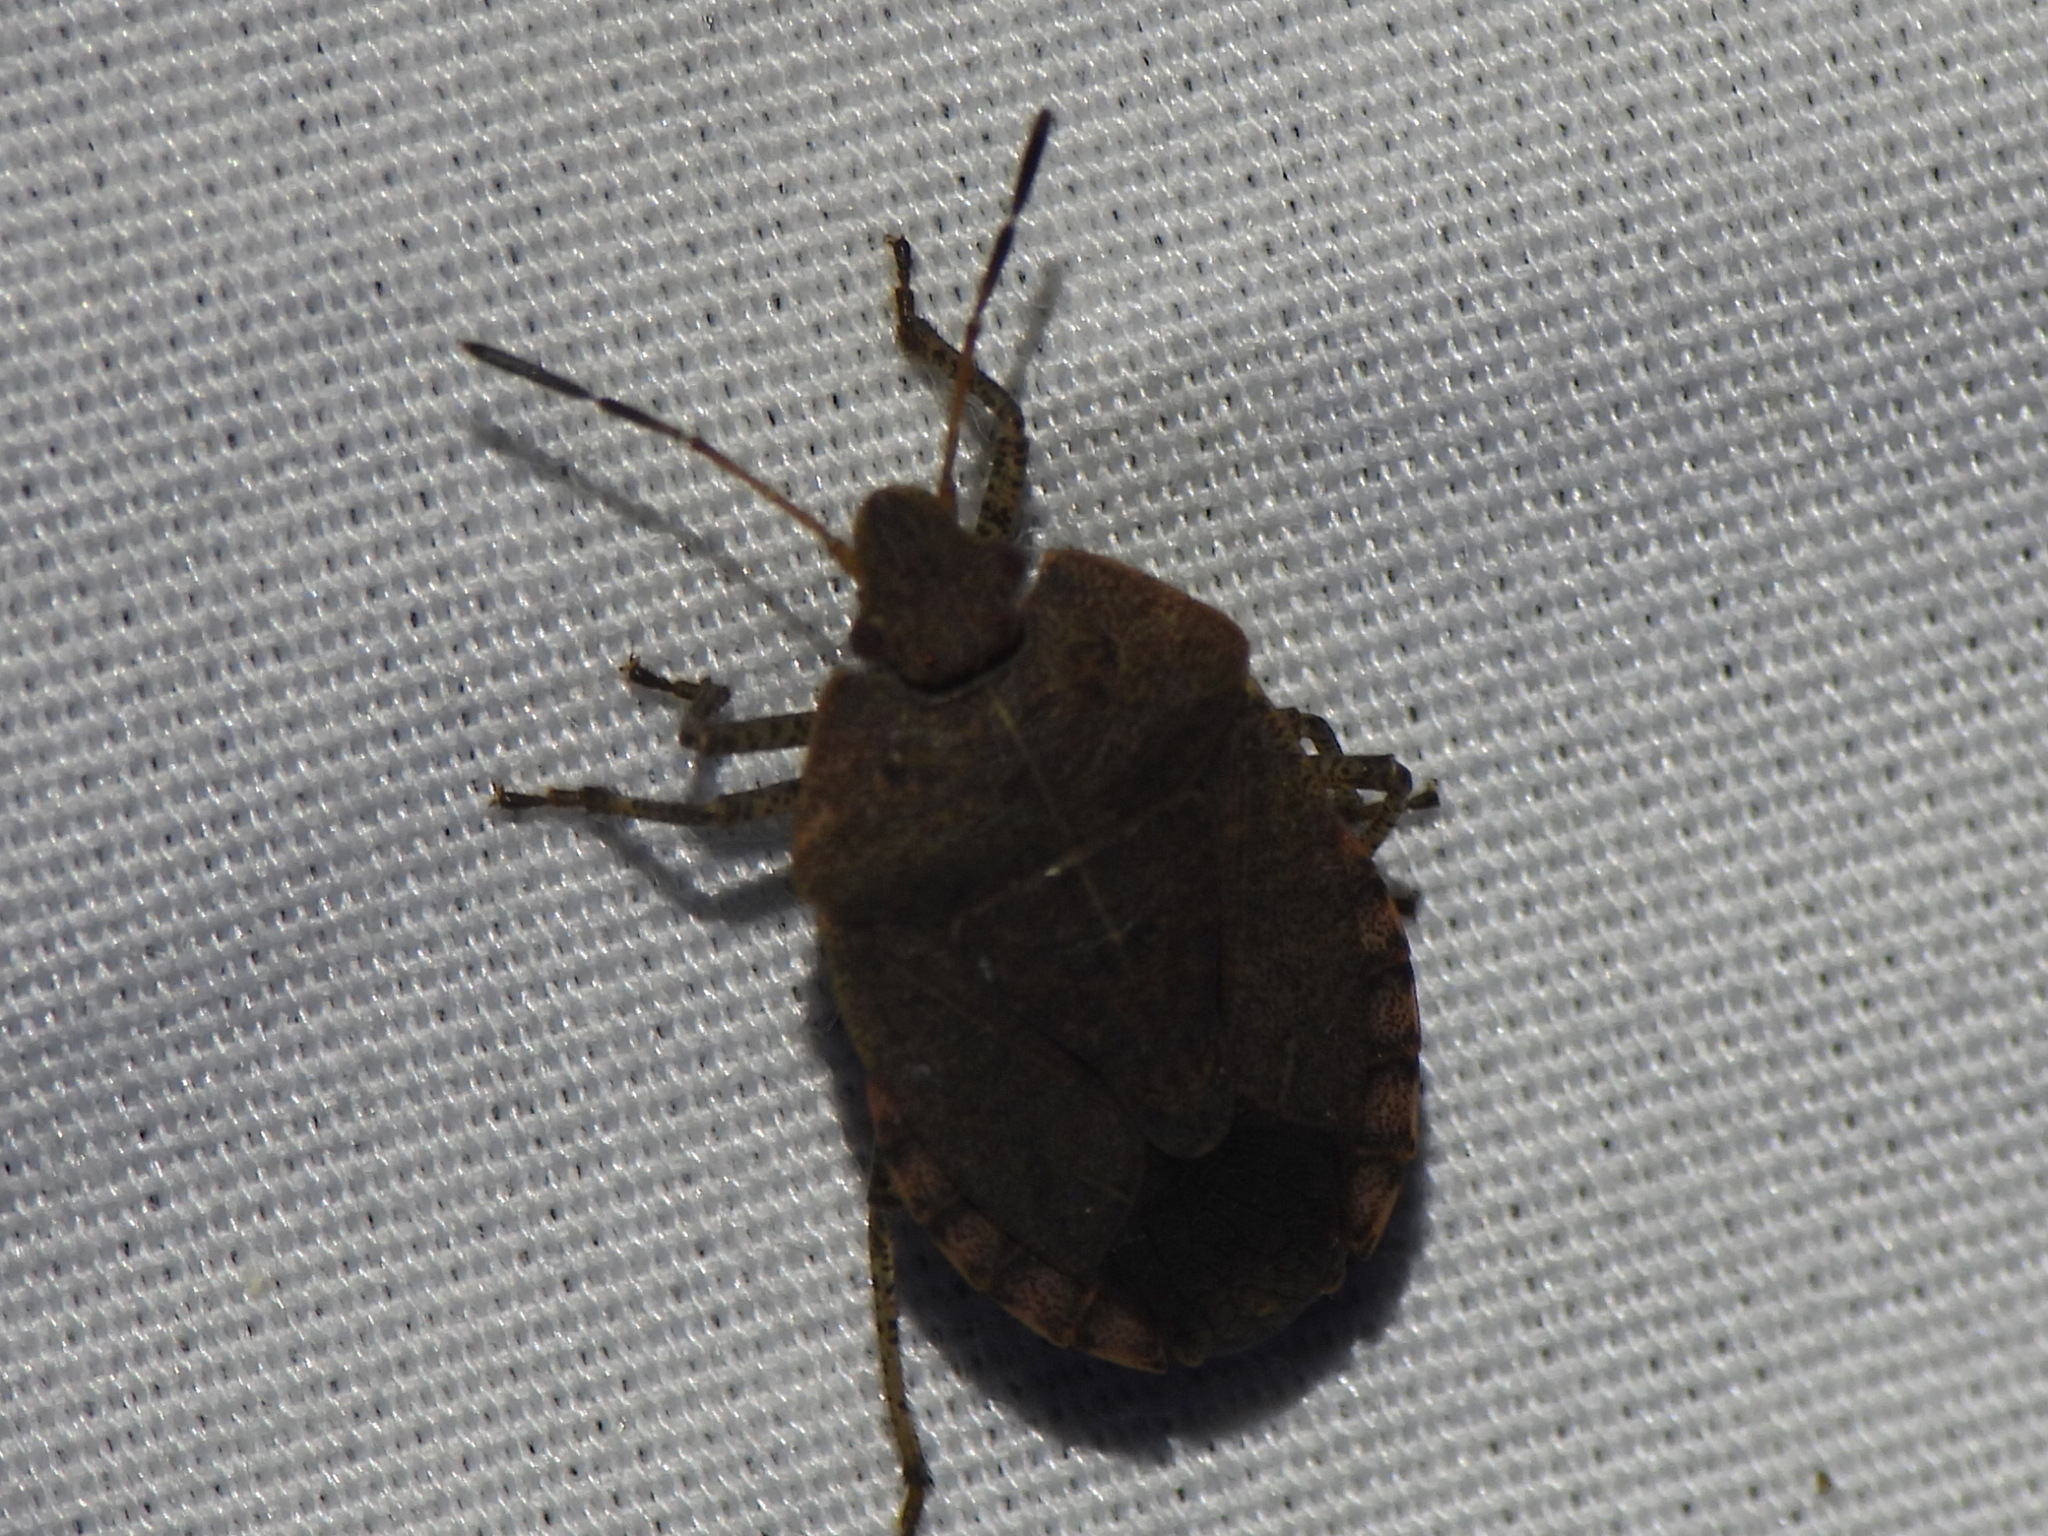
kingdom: Animalia
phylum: Arthropoda
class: Insecta
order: Hemiptera
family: Pentatomidae
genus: Menecles
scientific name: Menecles insertus
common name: Elf shoe stink bug
